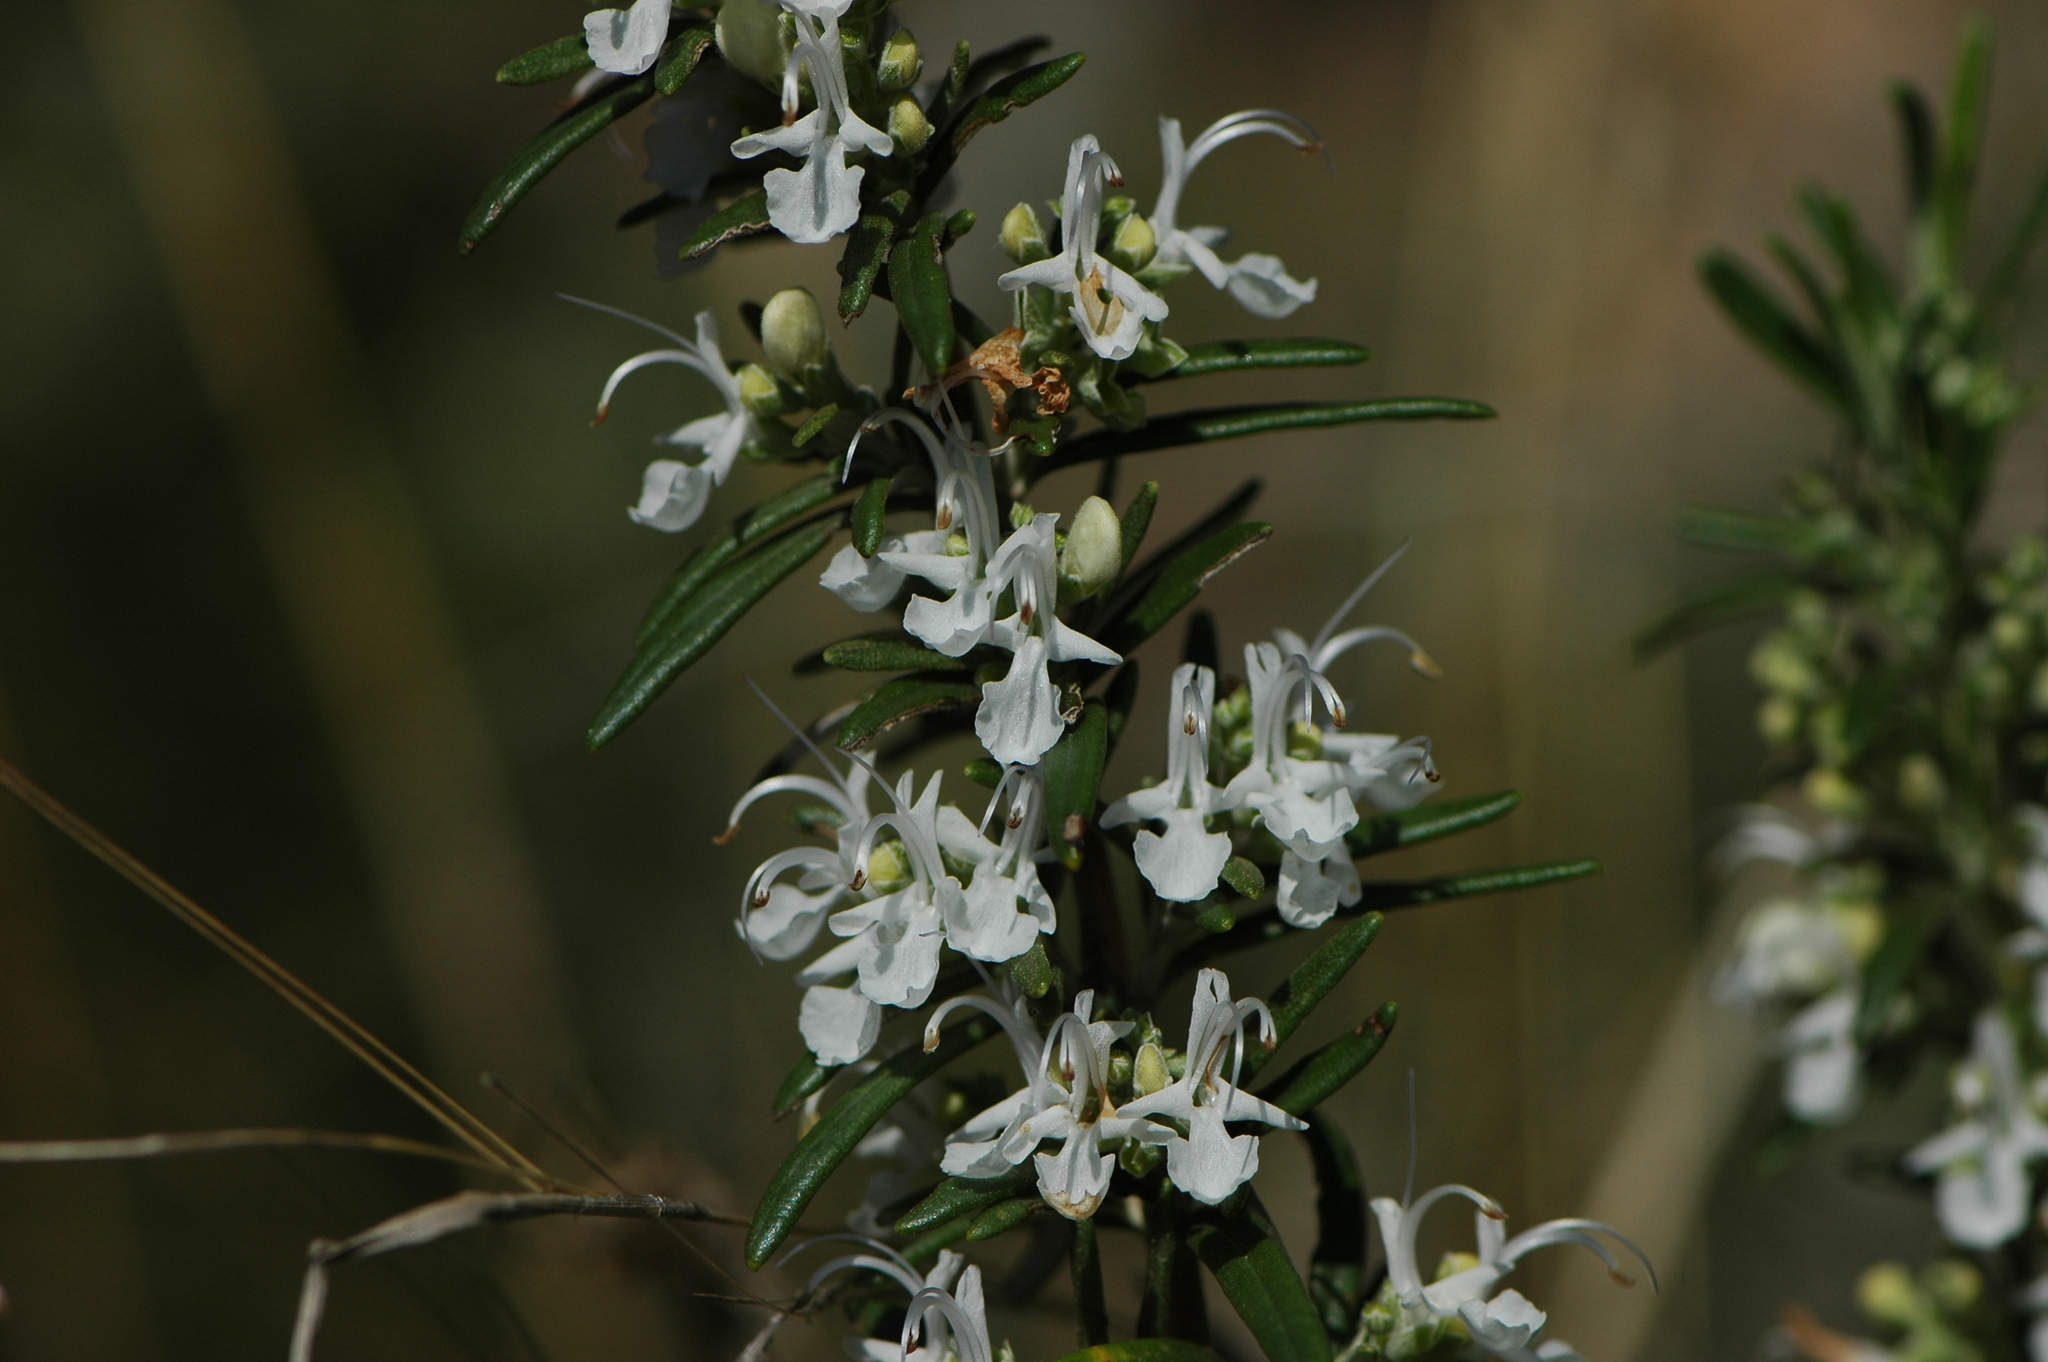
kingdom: Plantae
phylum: Tracheophyta
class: Magnoliopsida
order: Lamiales
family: Lamiaceae
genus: Salvia
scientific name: Salvia rosmarinus
